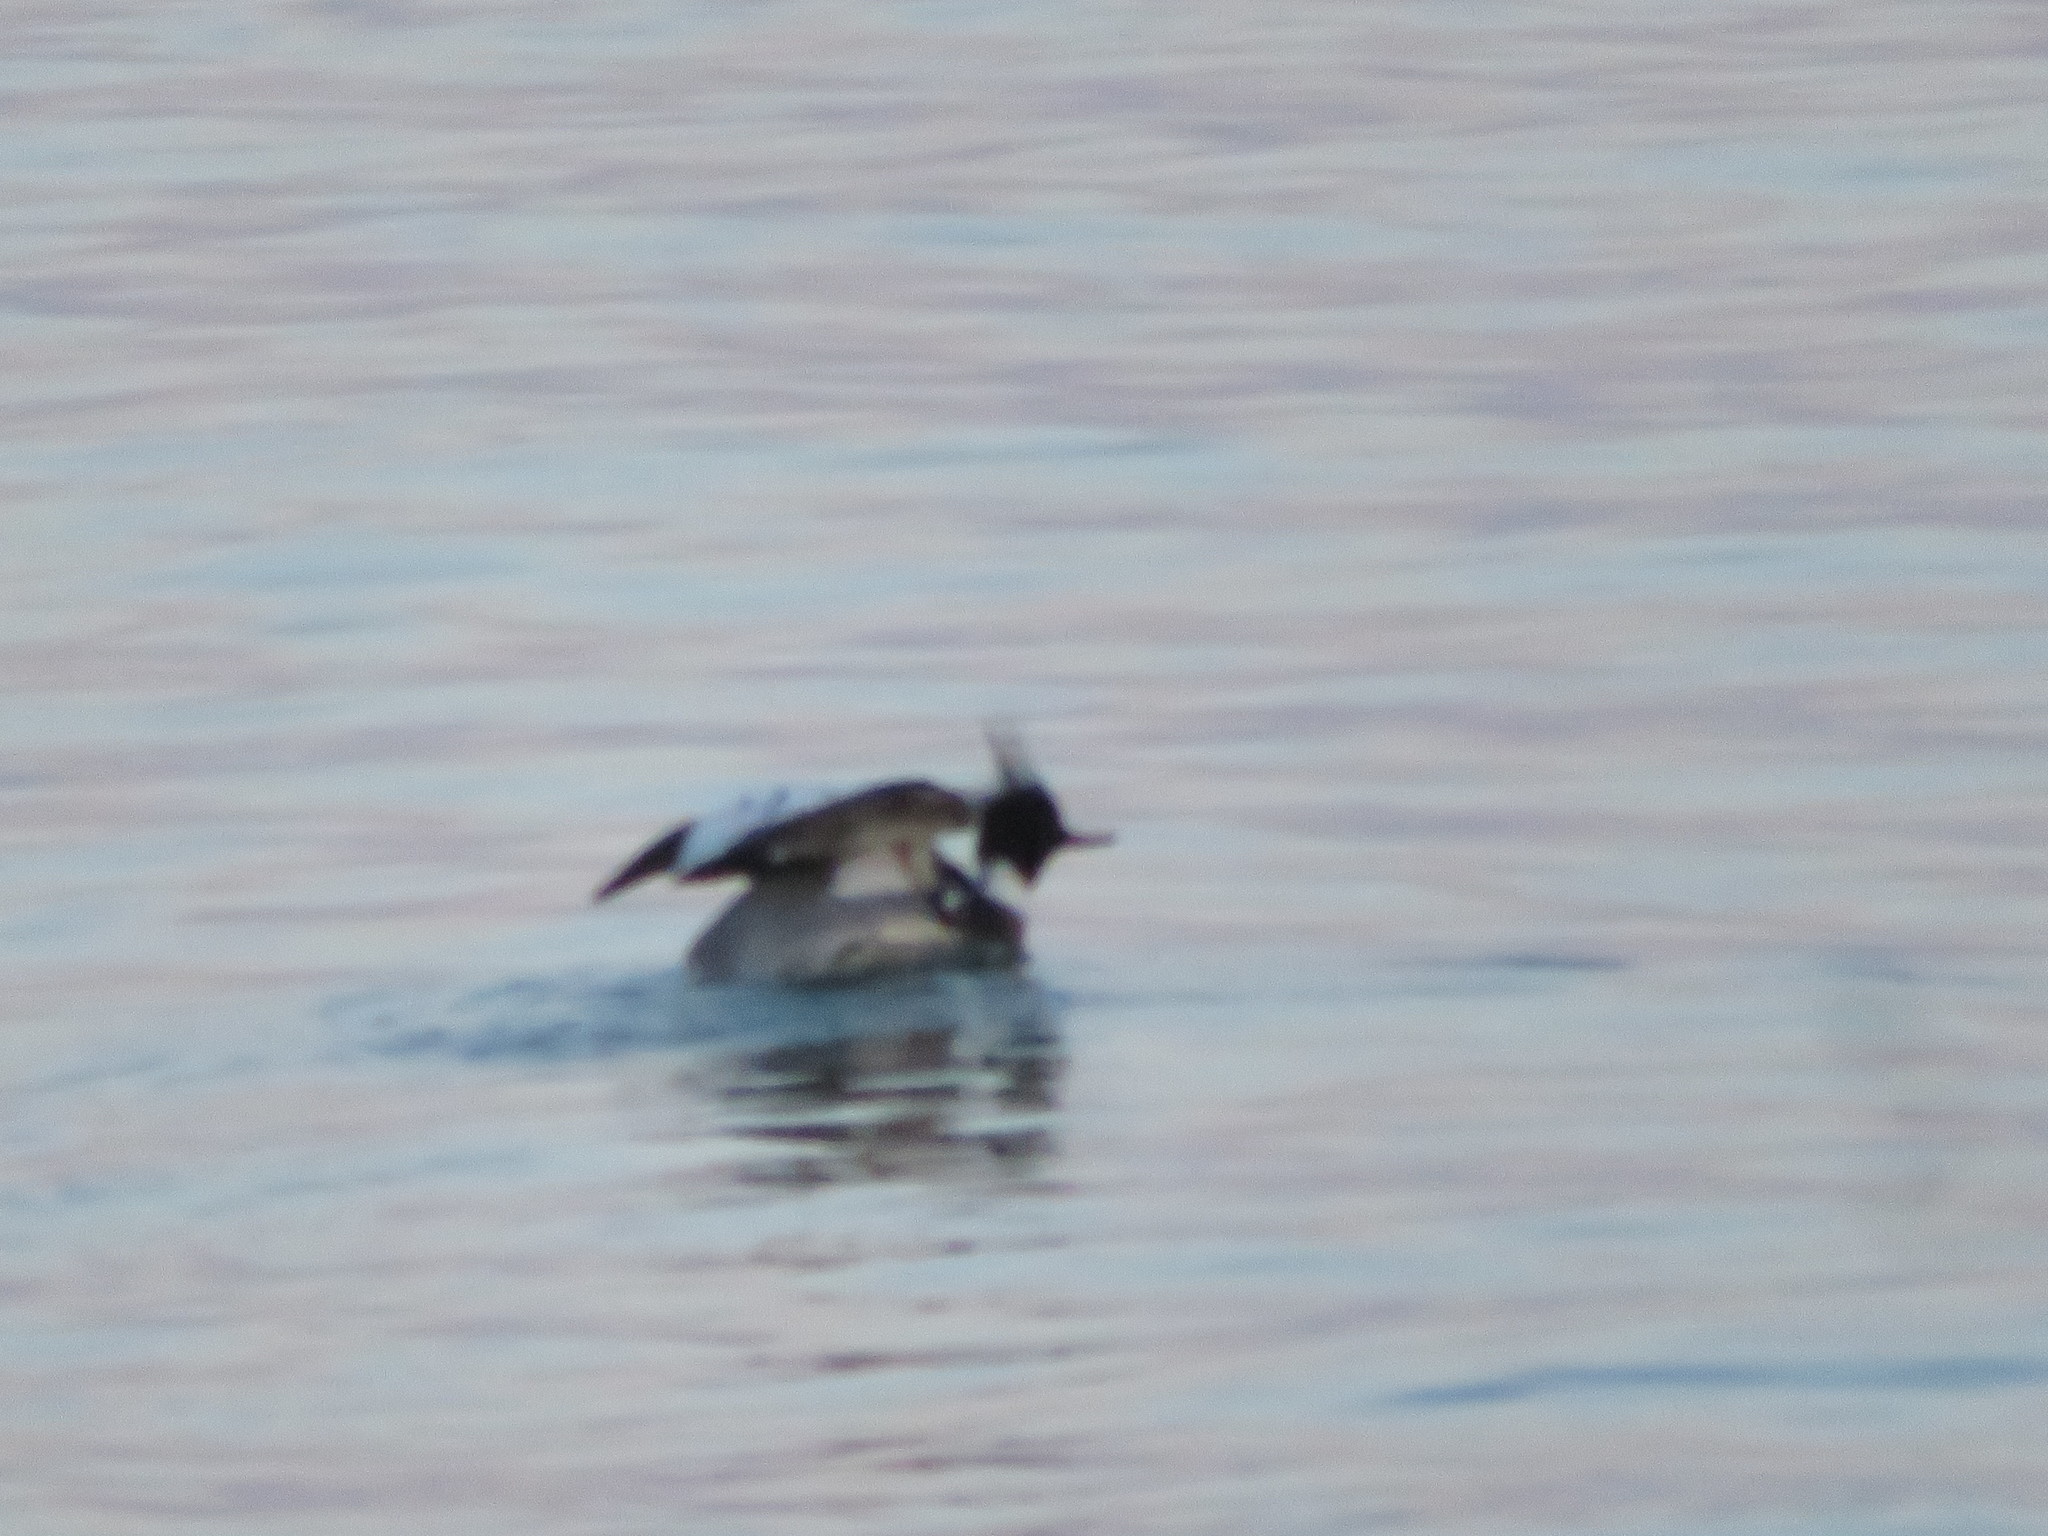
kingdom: Animalia
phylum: Chordata
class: Aves
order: Anseriformes
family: Anatidae
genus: Mergus
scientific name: Mergus serrator
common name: Red-breasted merganser
